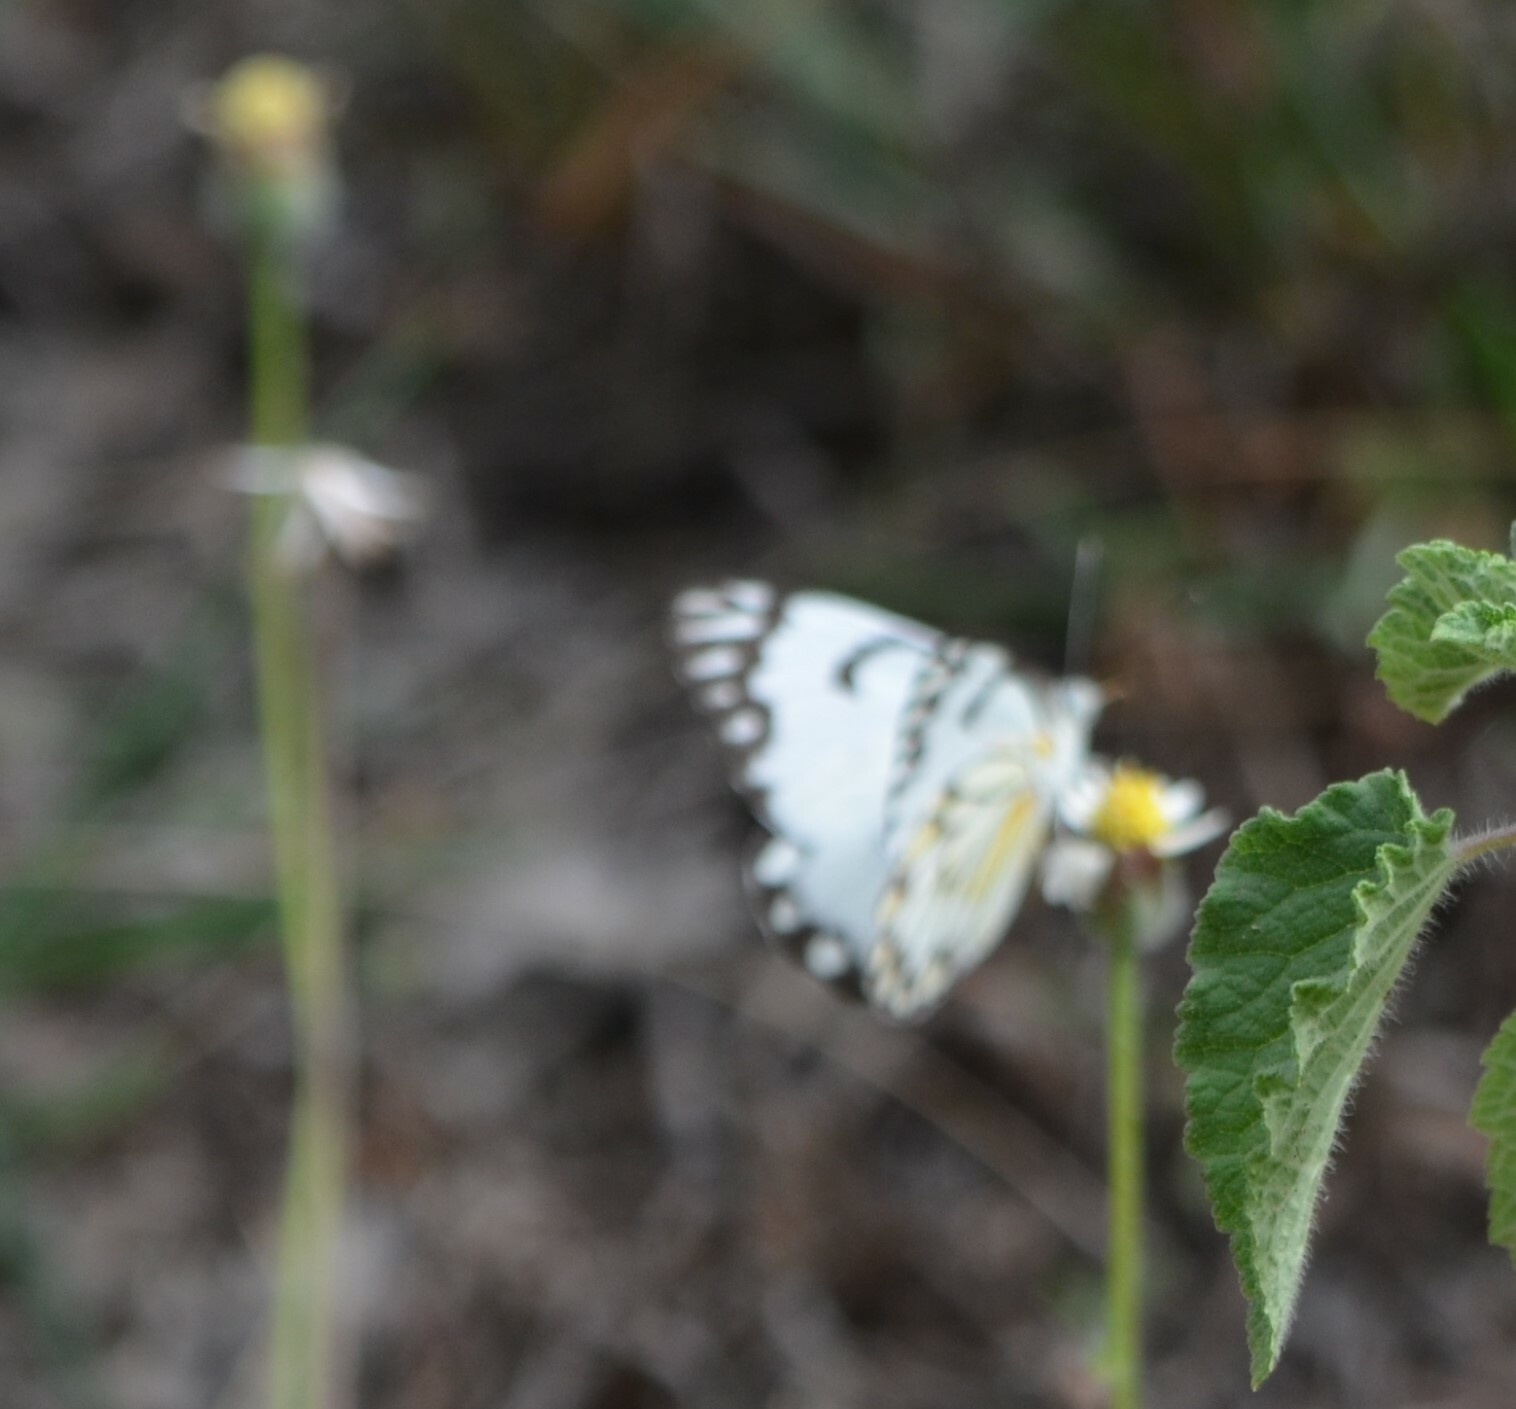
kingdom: Animalia
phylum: Arthropoda
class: Insecta
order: Lepidoptera
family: Pieridae
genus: Belenois
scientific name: Belenois aurota
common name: Brown-veined white
